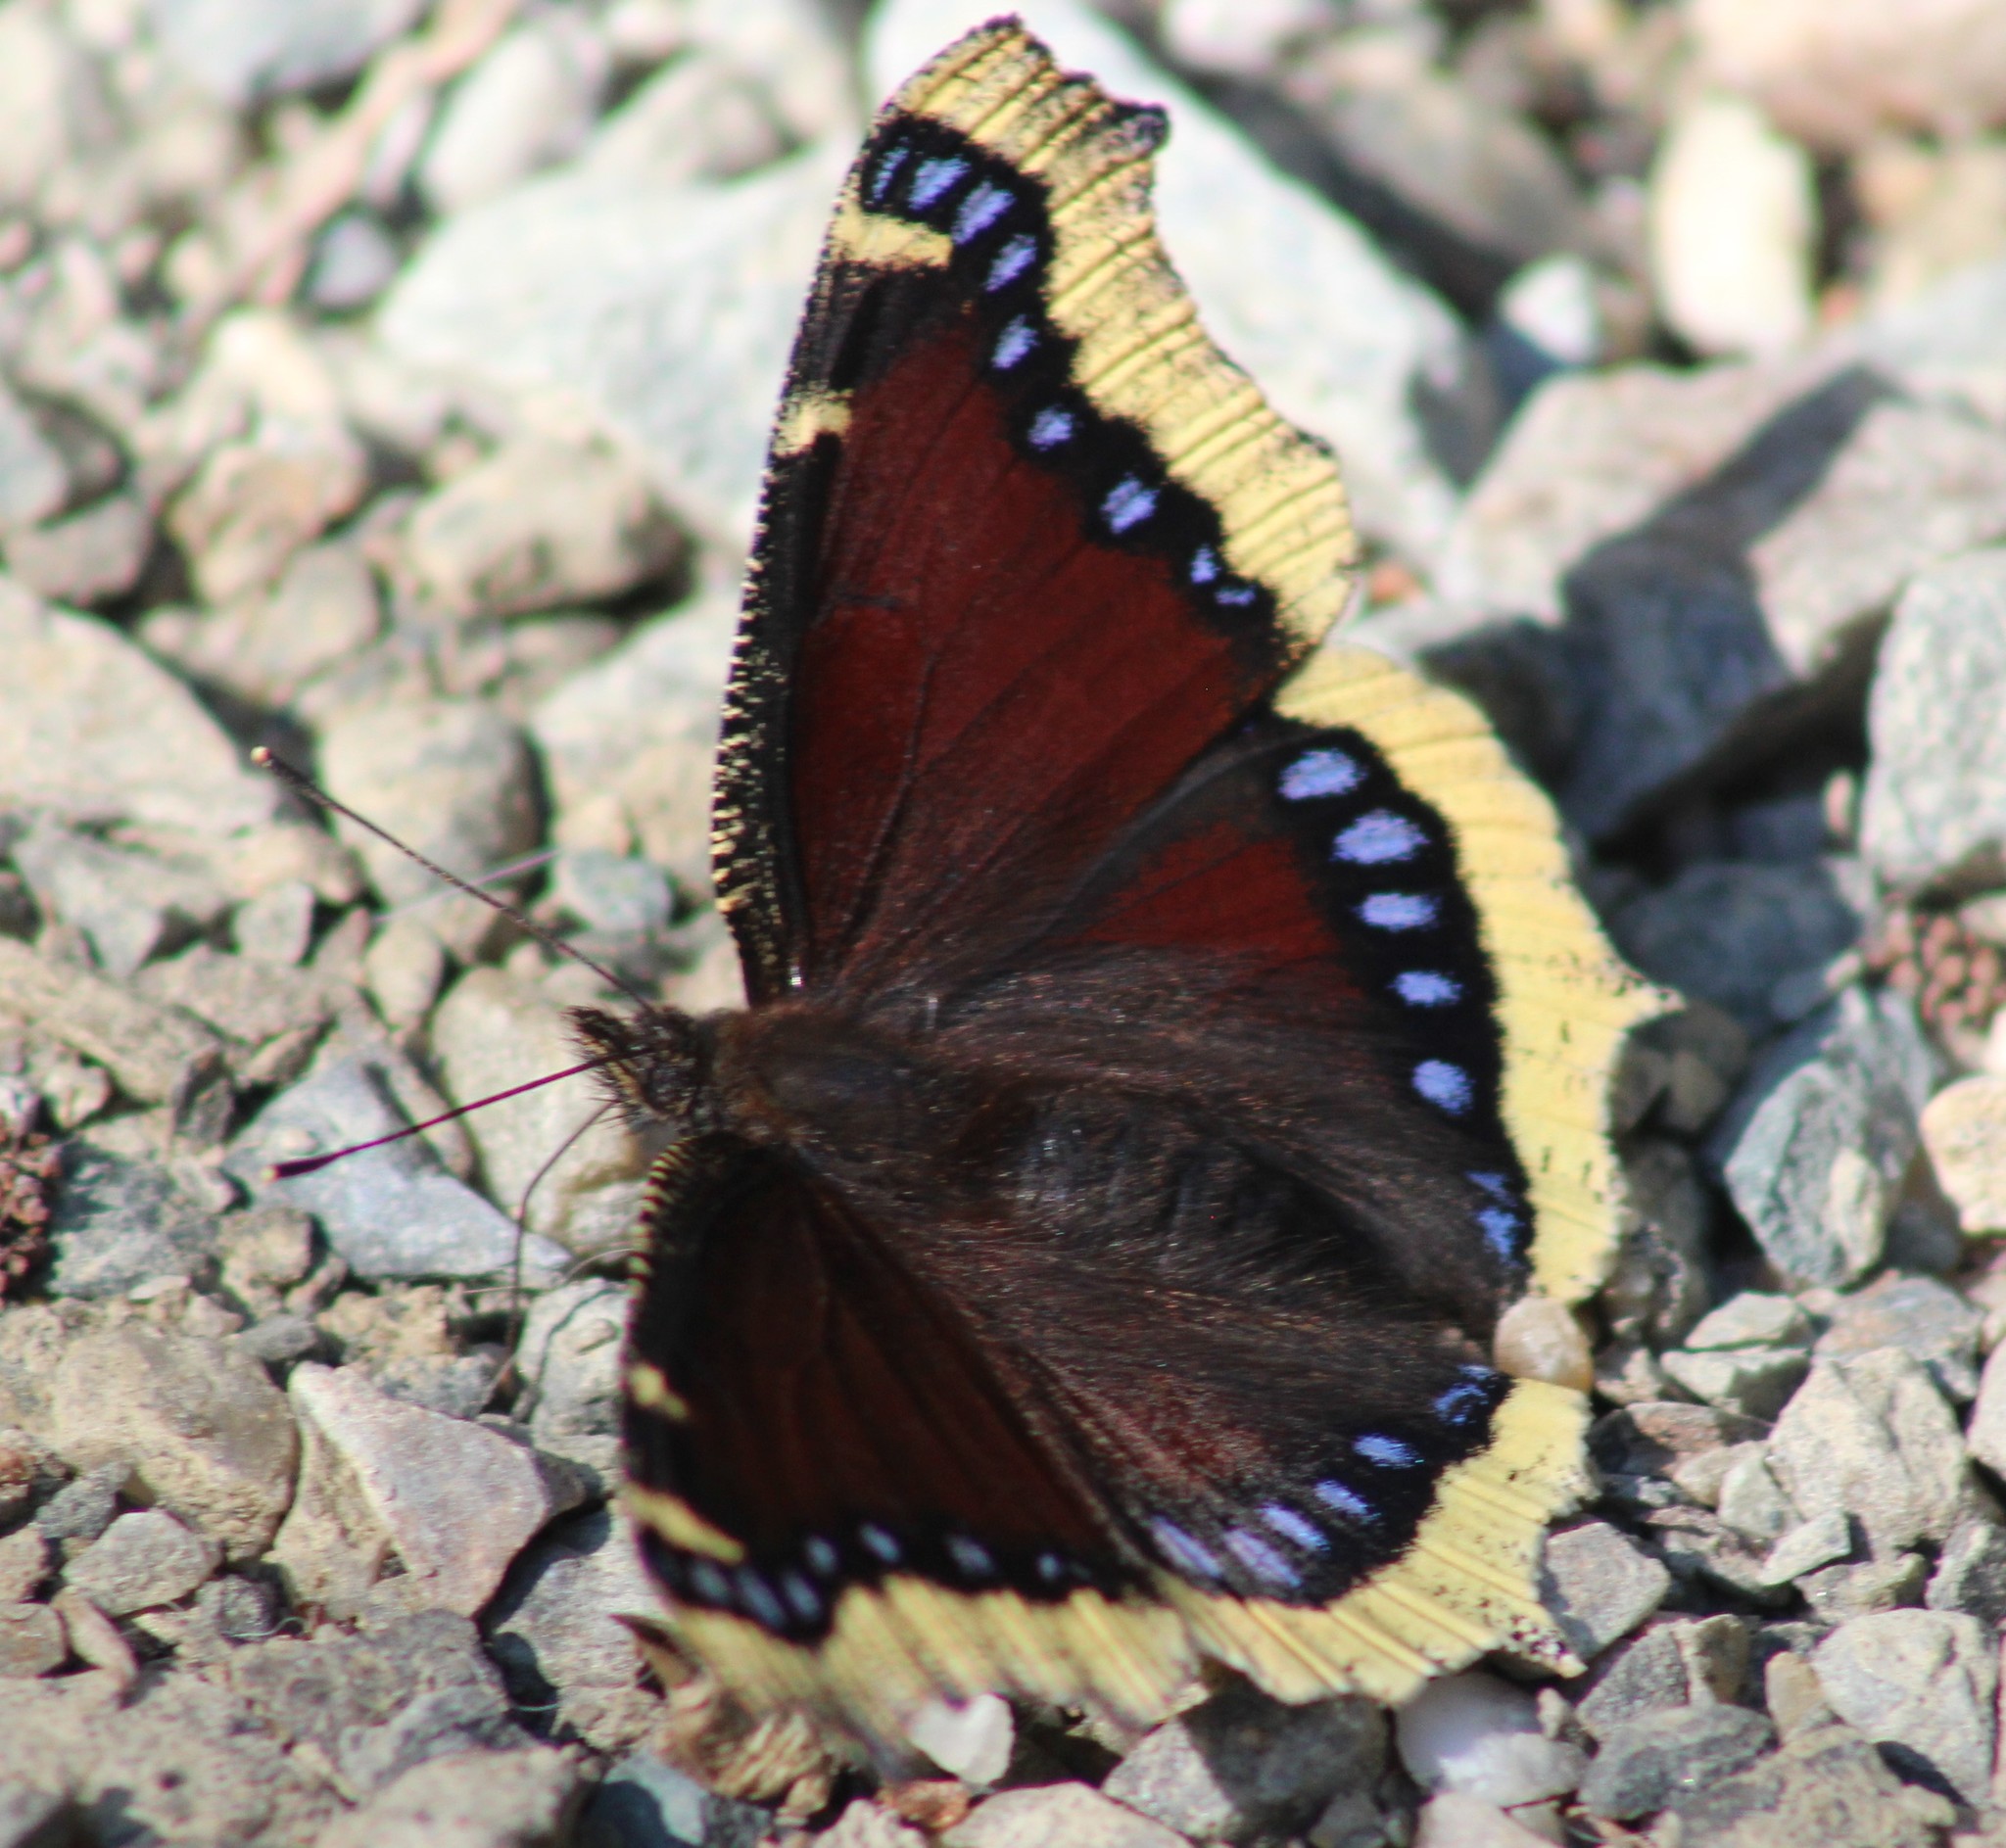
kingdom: Animalia
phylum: Arthropoda
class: Insecta
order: Lepidoptera
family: Nymphalidae
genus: Nymphalis
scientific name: Nymphalis antiopa
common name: Camberwell beauty
